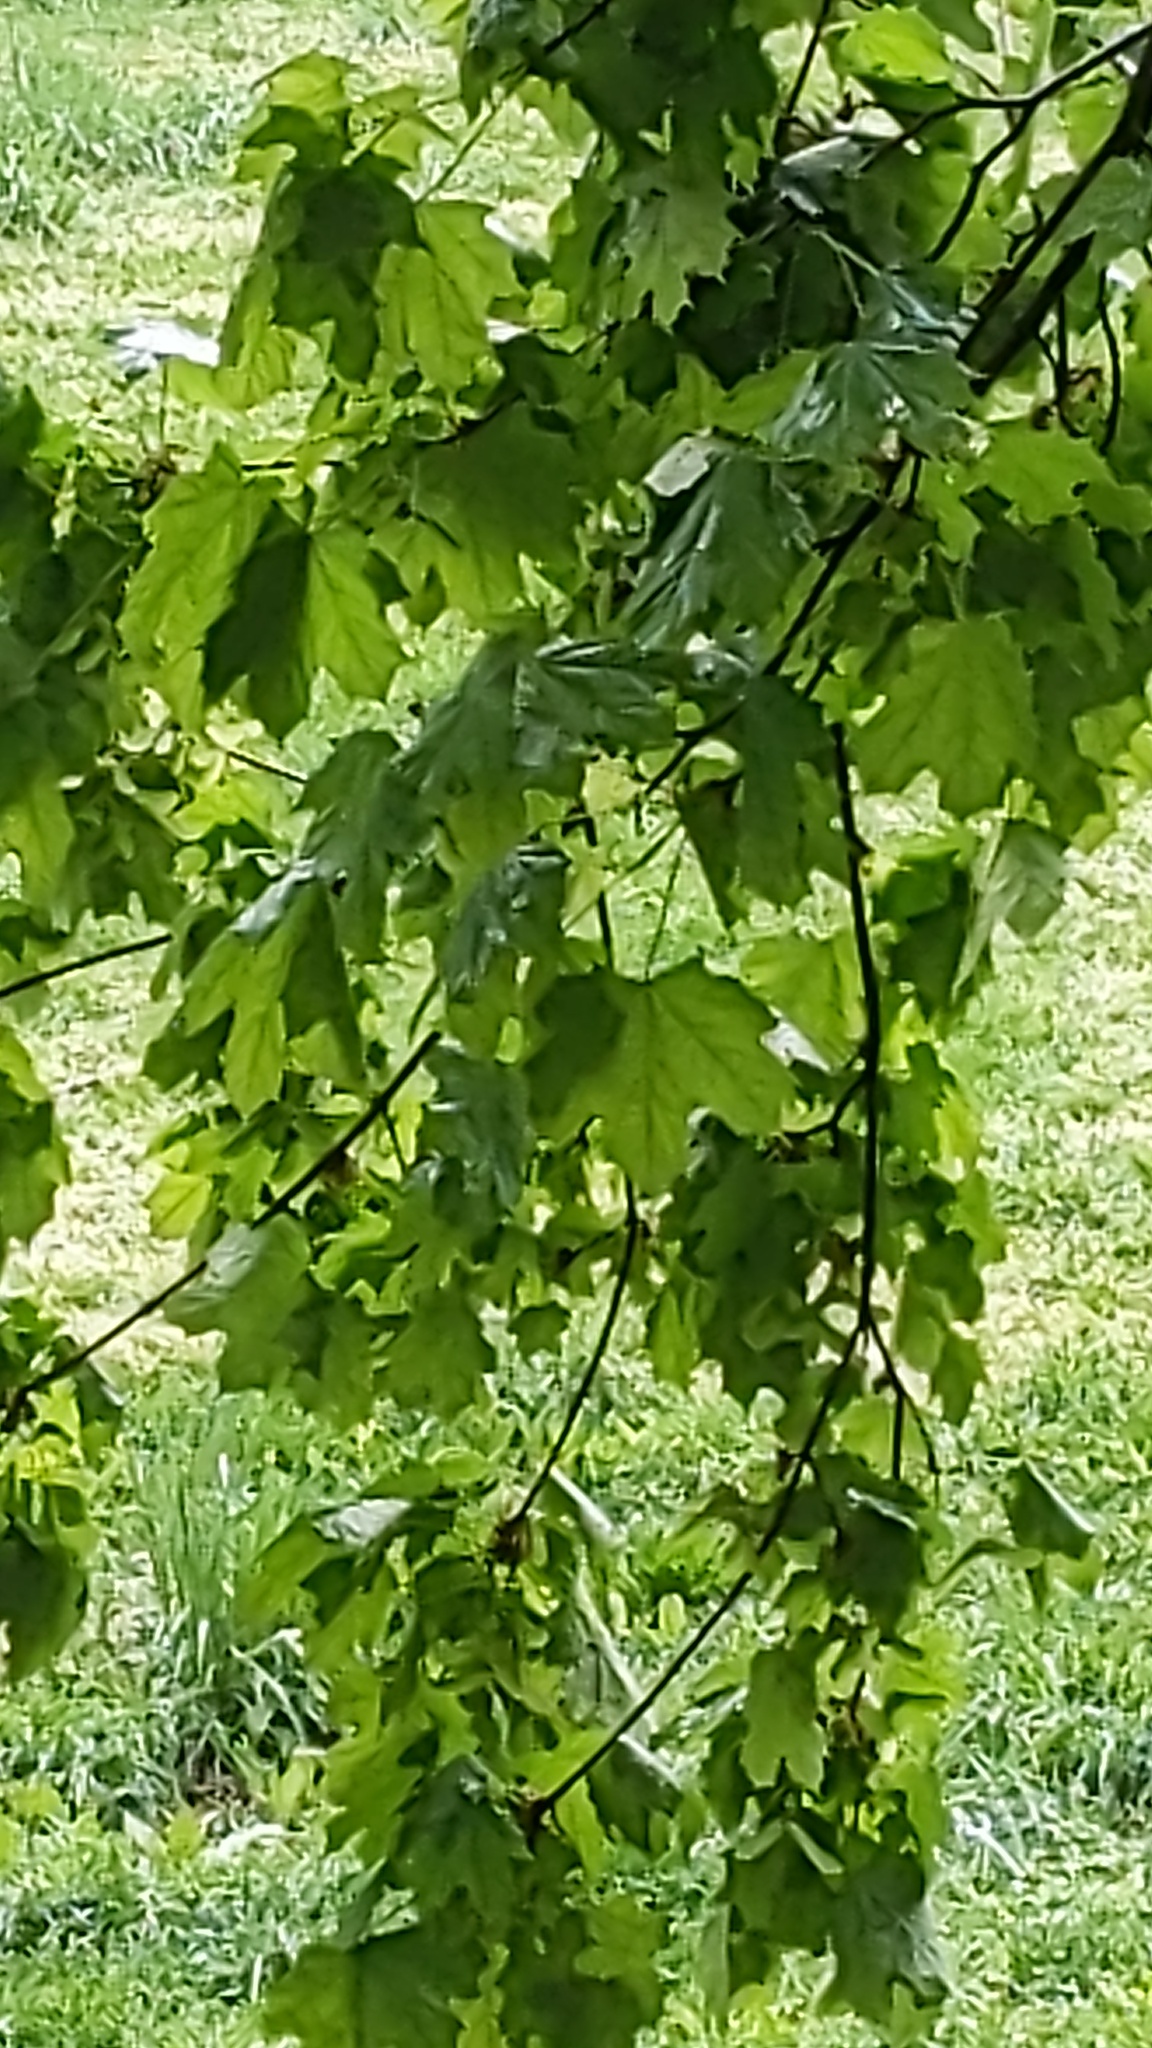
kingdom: Plantae
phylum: Tracheophyta
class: Magnoliopsida
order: Sapindales
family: Sapindaceae
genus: Acer
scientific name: Acer platanoides
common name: Norway maple
